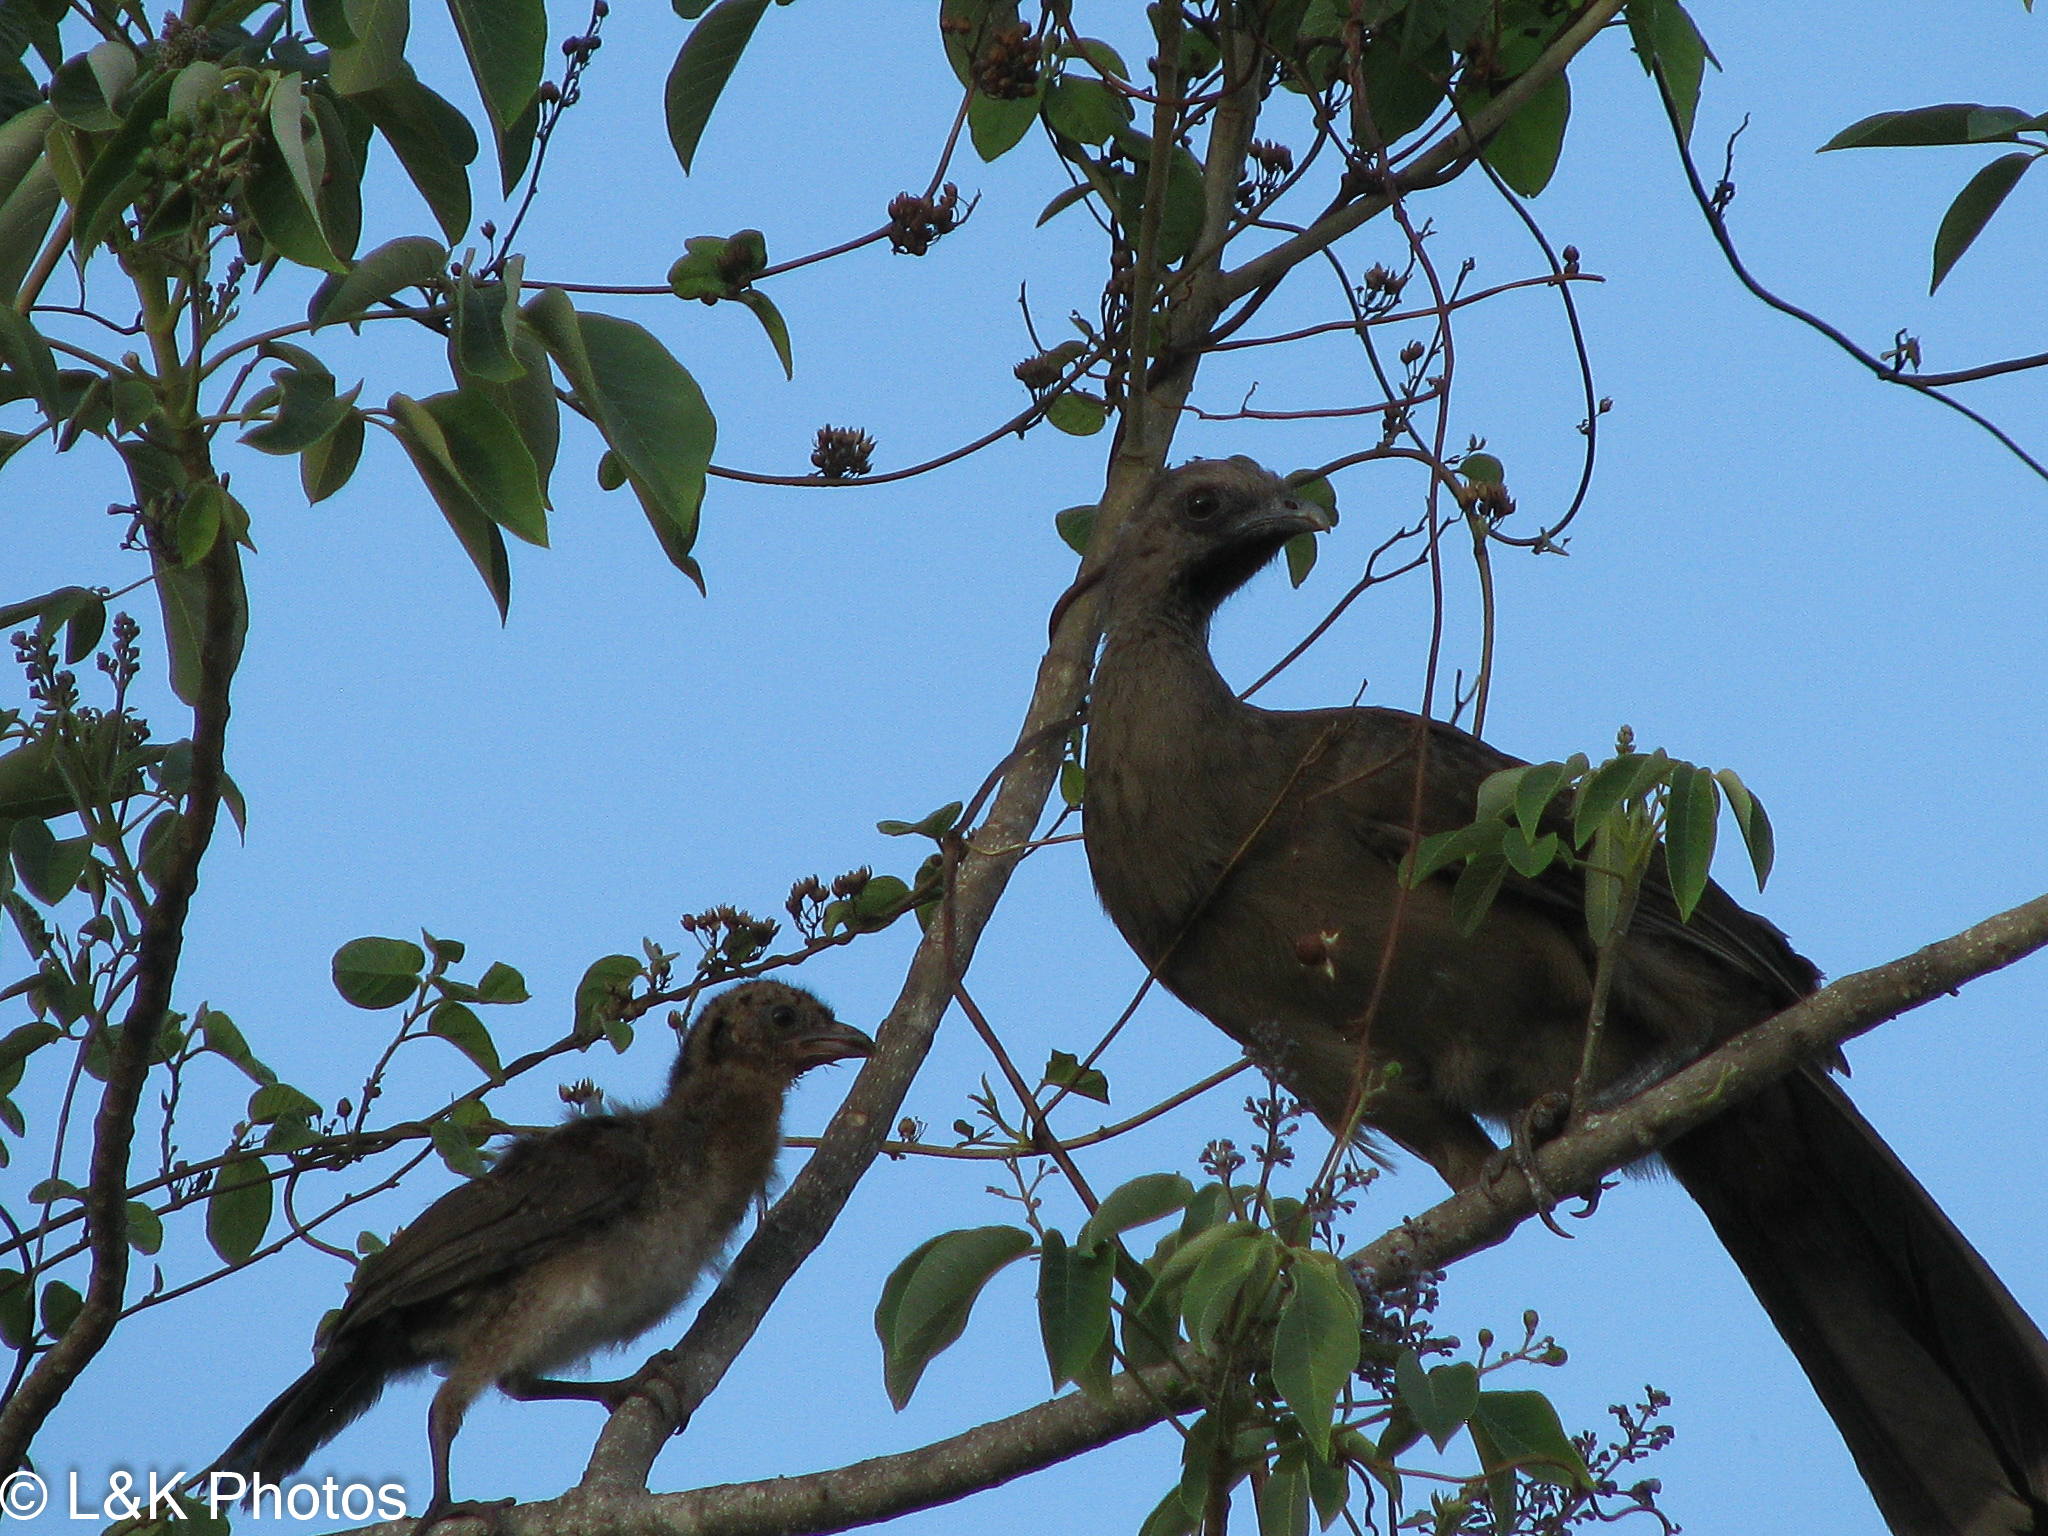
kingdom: Animalia
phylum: Chordata
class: Aves
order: Galliformes
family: Cracidae
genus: Ortalis
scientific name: Ortalis vetula
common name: Plain chachalaca
